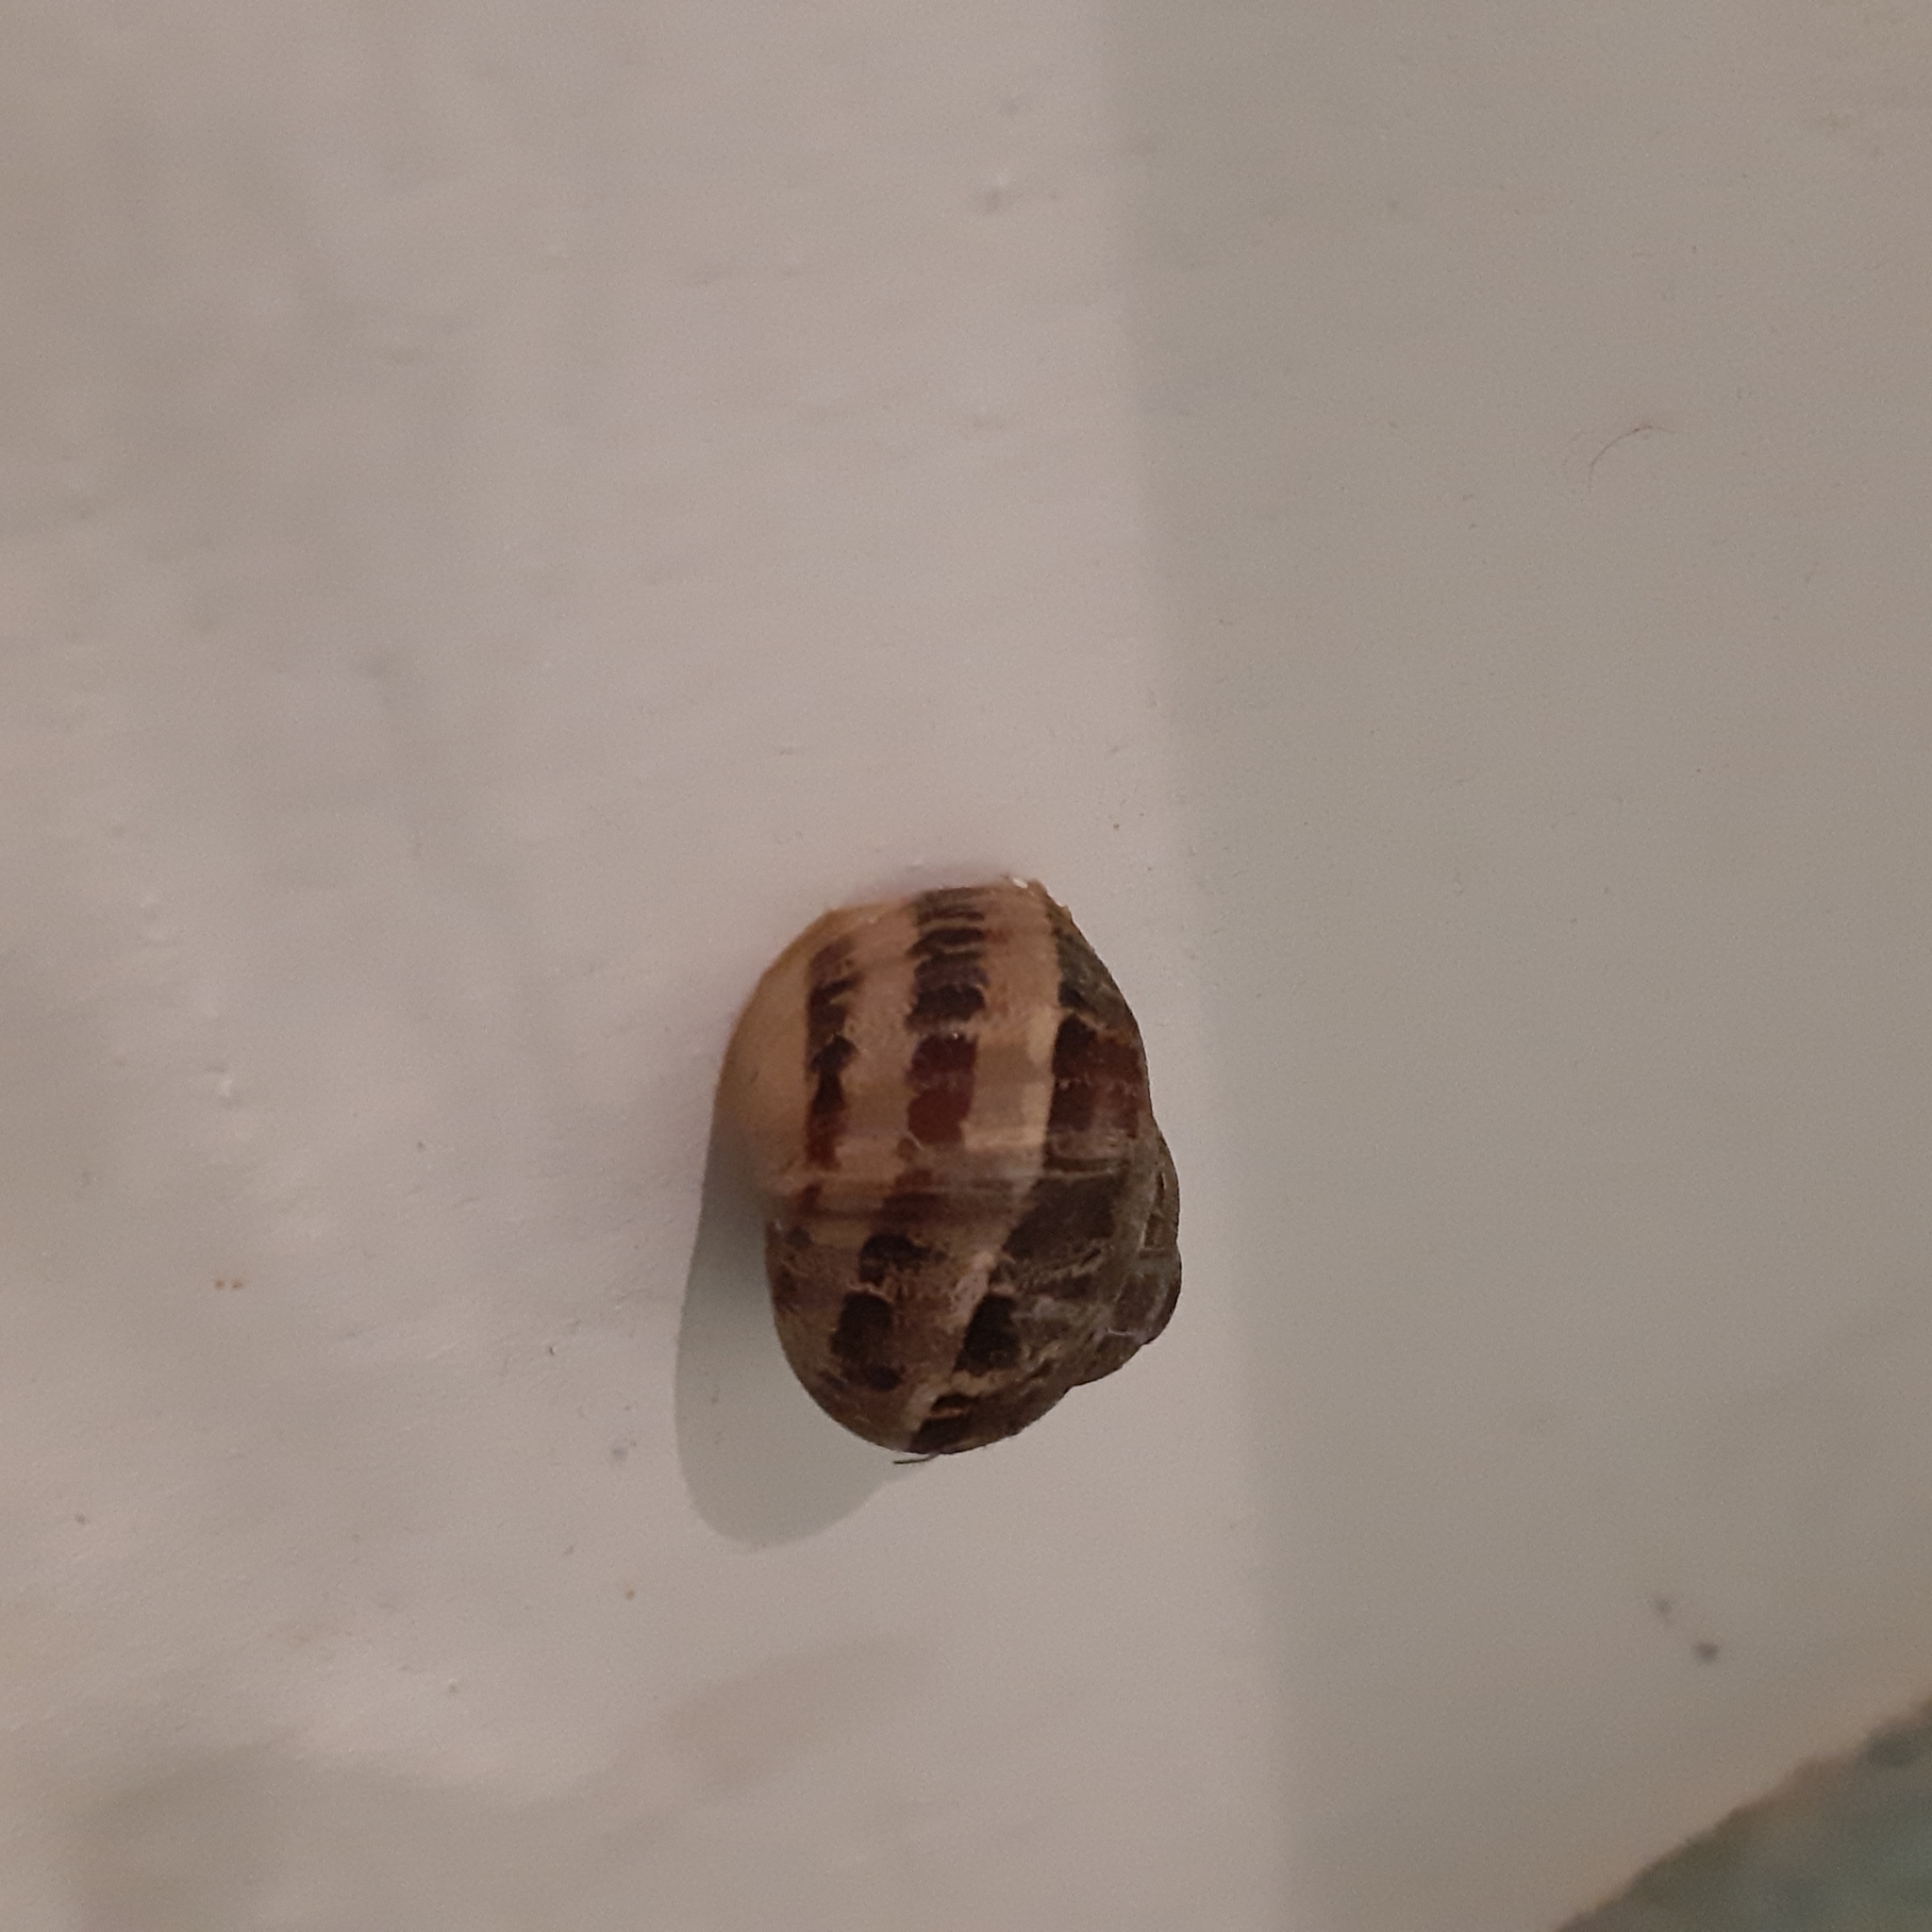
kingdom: Animalia
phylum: Mollusca
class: Gastropoda
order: Stylommatophora
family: Helicidae
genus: Cornu
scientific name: Cornu aspersum
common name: Brown garden snail
